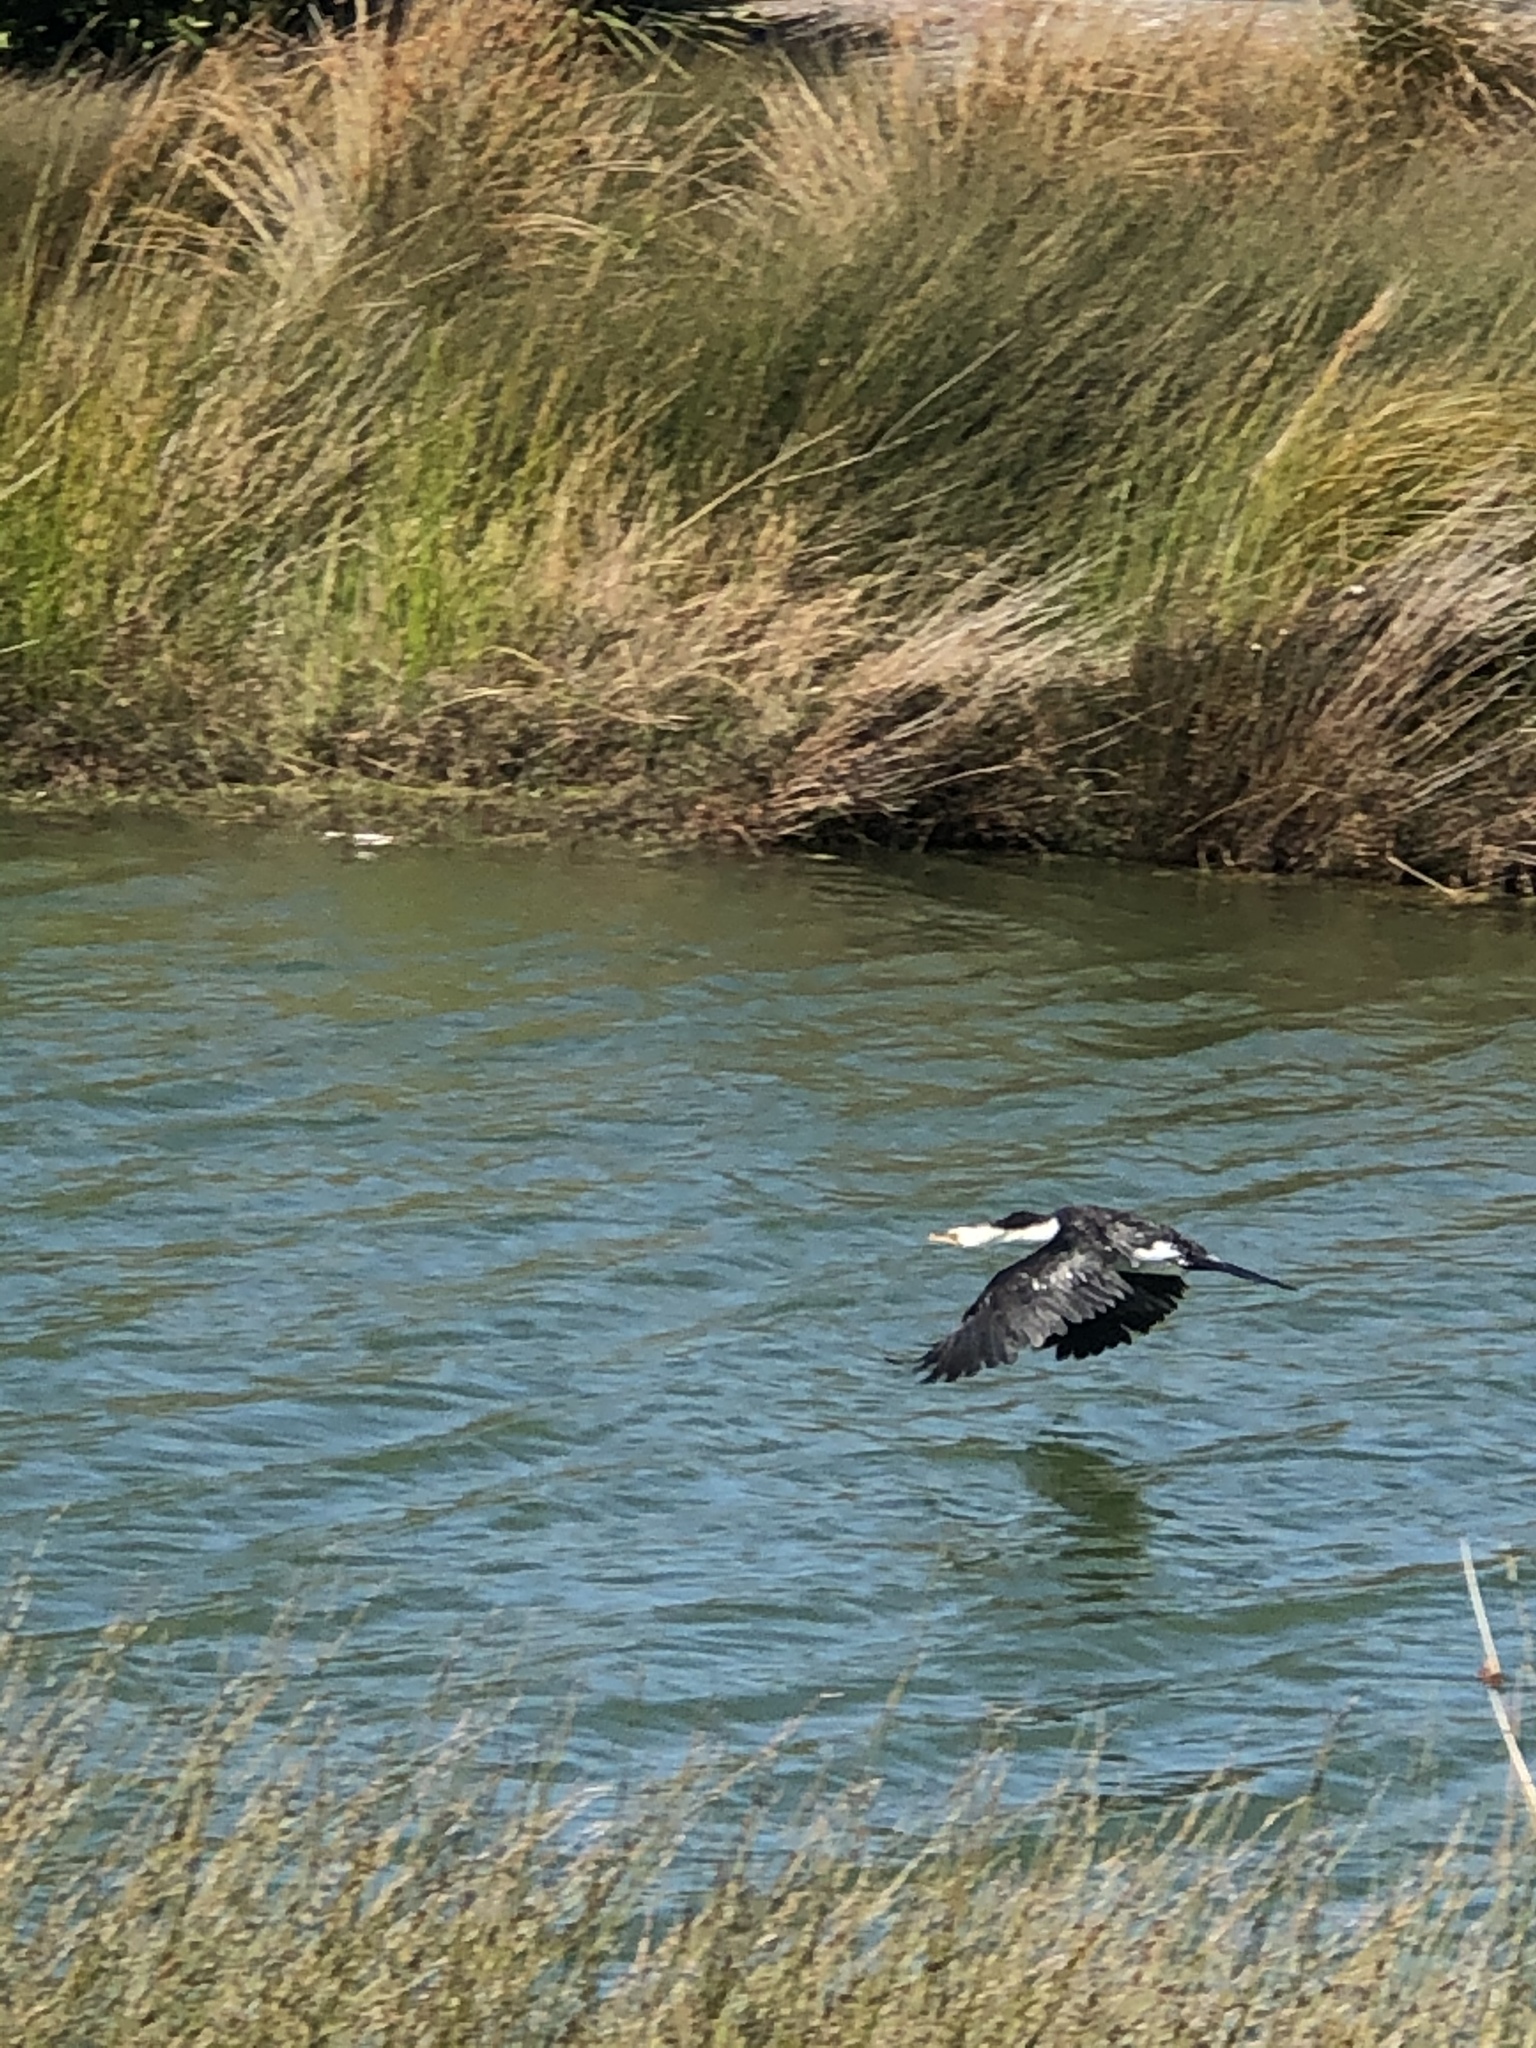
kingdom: Animalia
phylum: Chordata
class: Aves
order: Suliformes
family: Phalacrocoracidae
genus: Microcarbo
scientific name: Microcarbo melanoleucos
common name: Little pied cormorant
